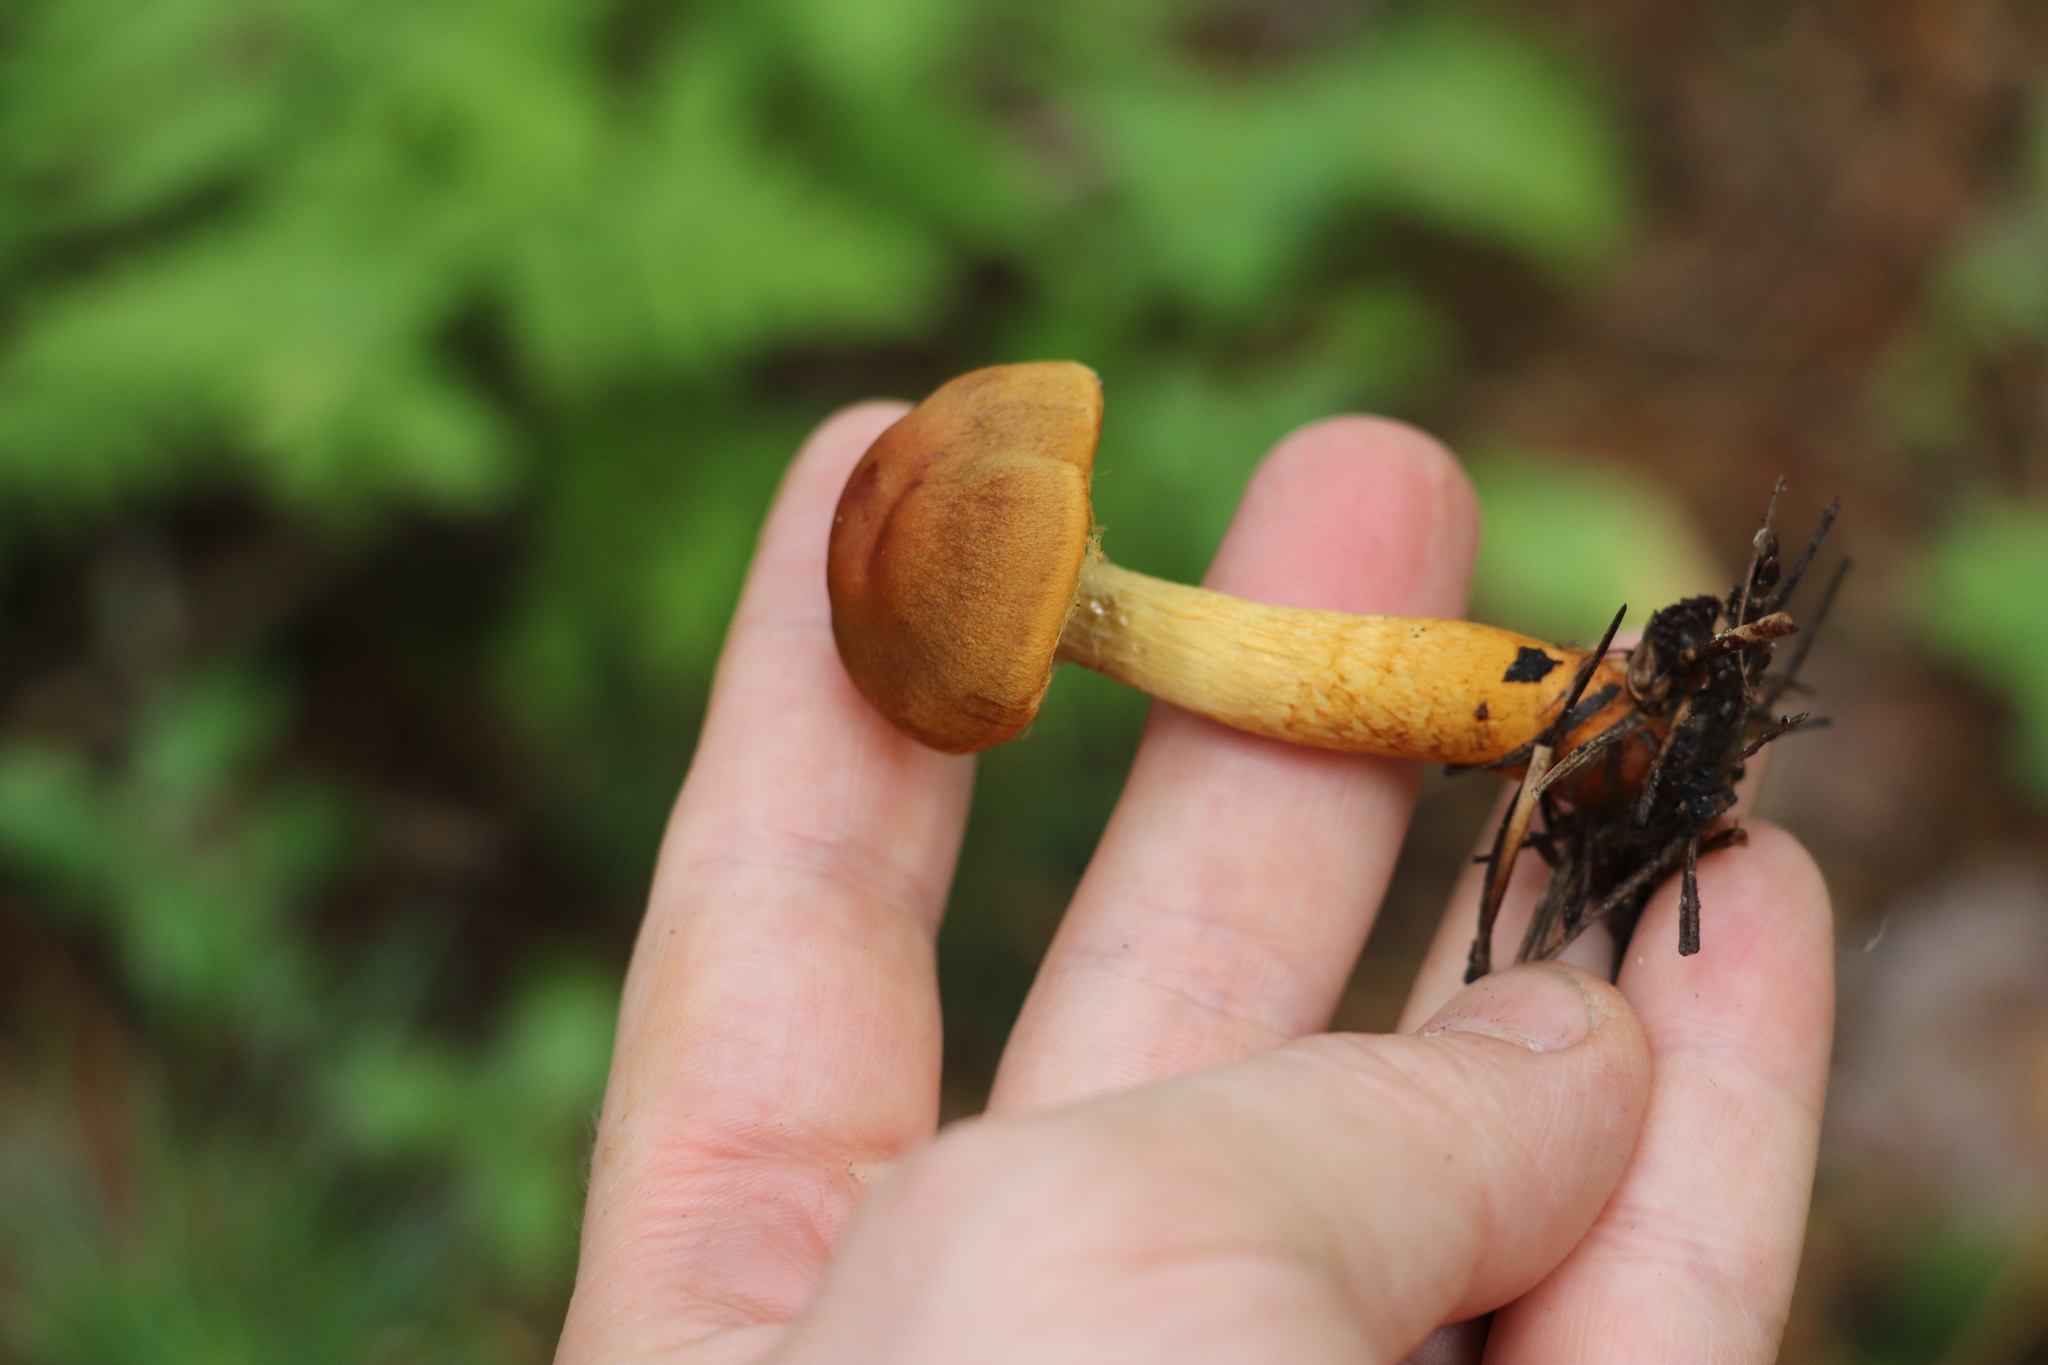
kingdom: Fungi
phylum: Basidiomycota
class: Agaricomycetes
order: Agaricales
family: Cortinariaceae
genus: Cortinarius
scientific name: Cortinarius cinnamomeus
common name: Cinnamon webcap
